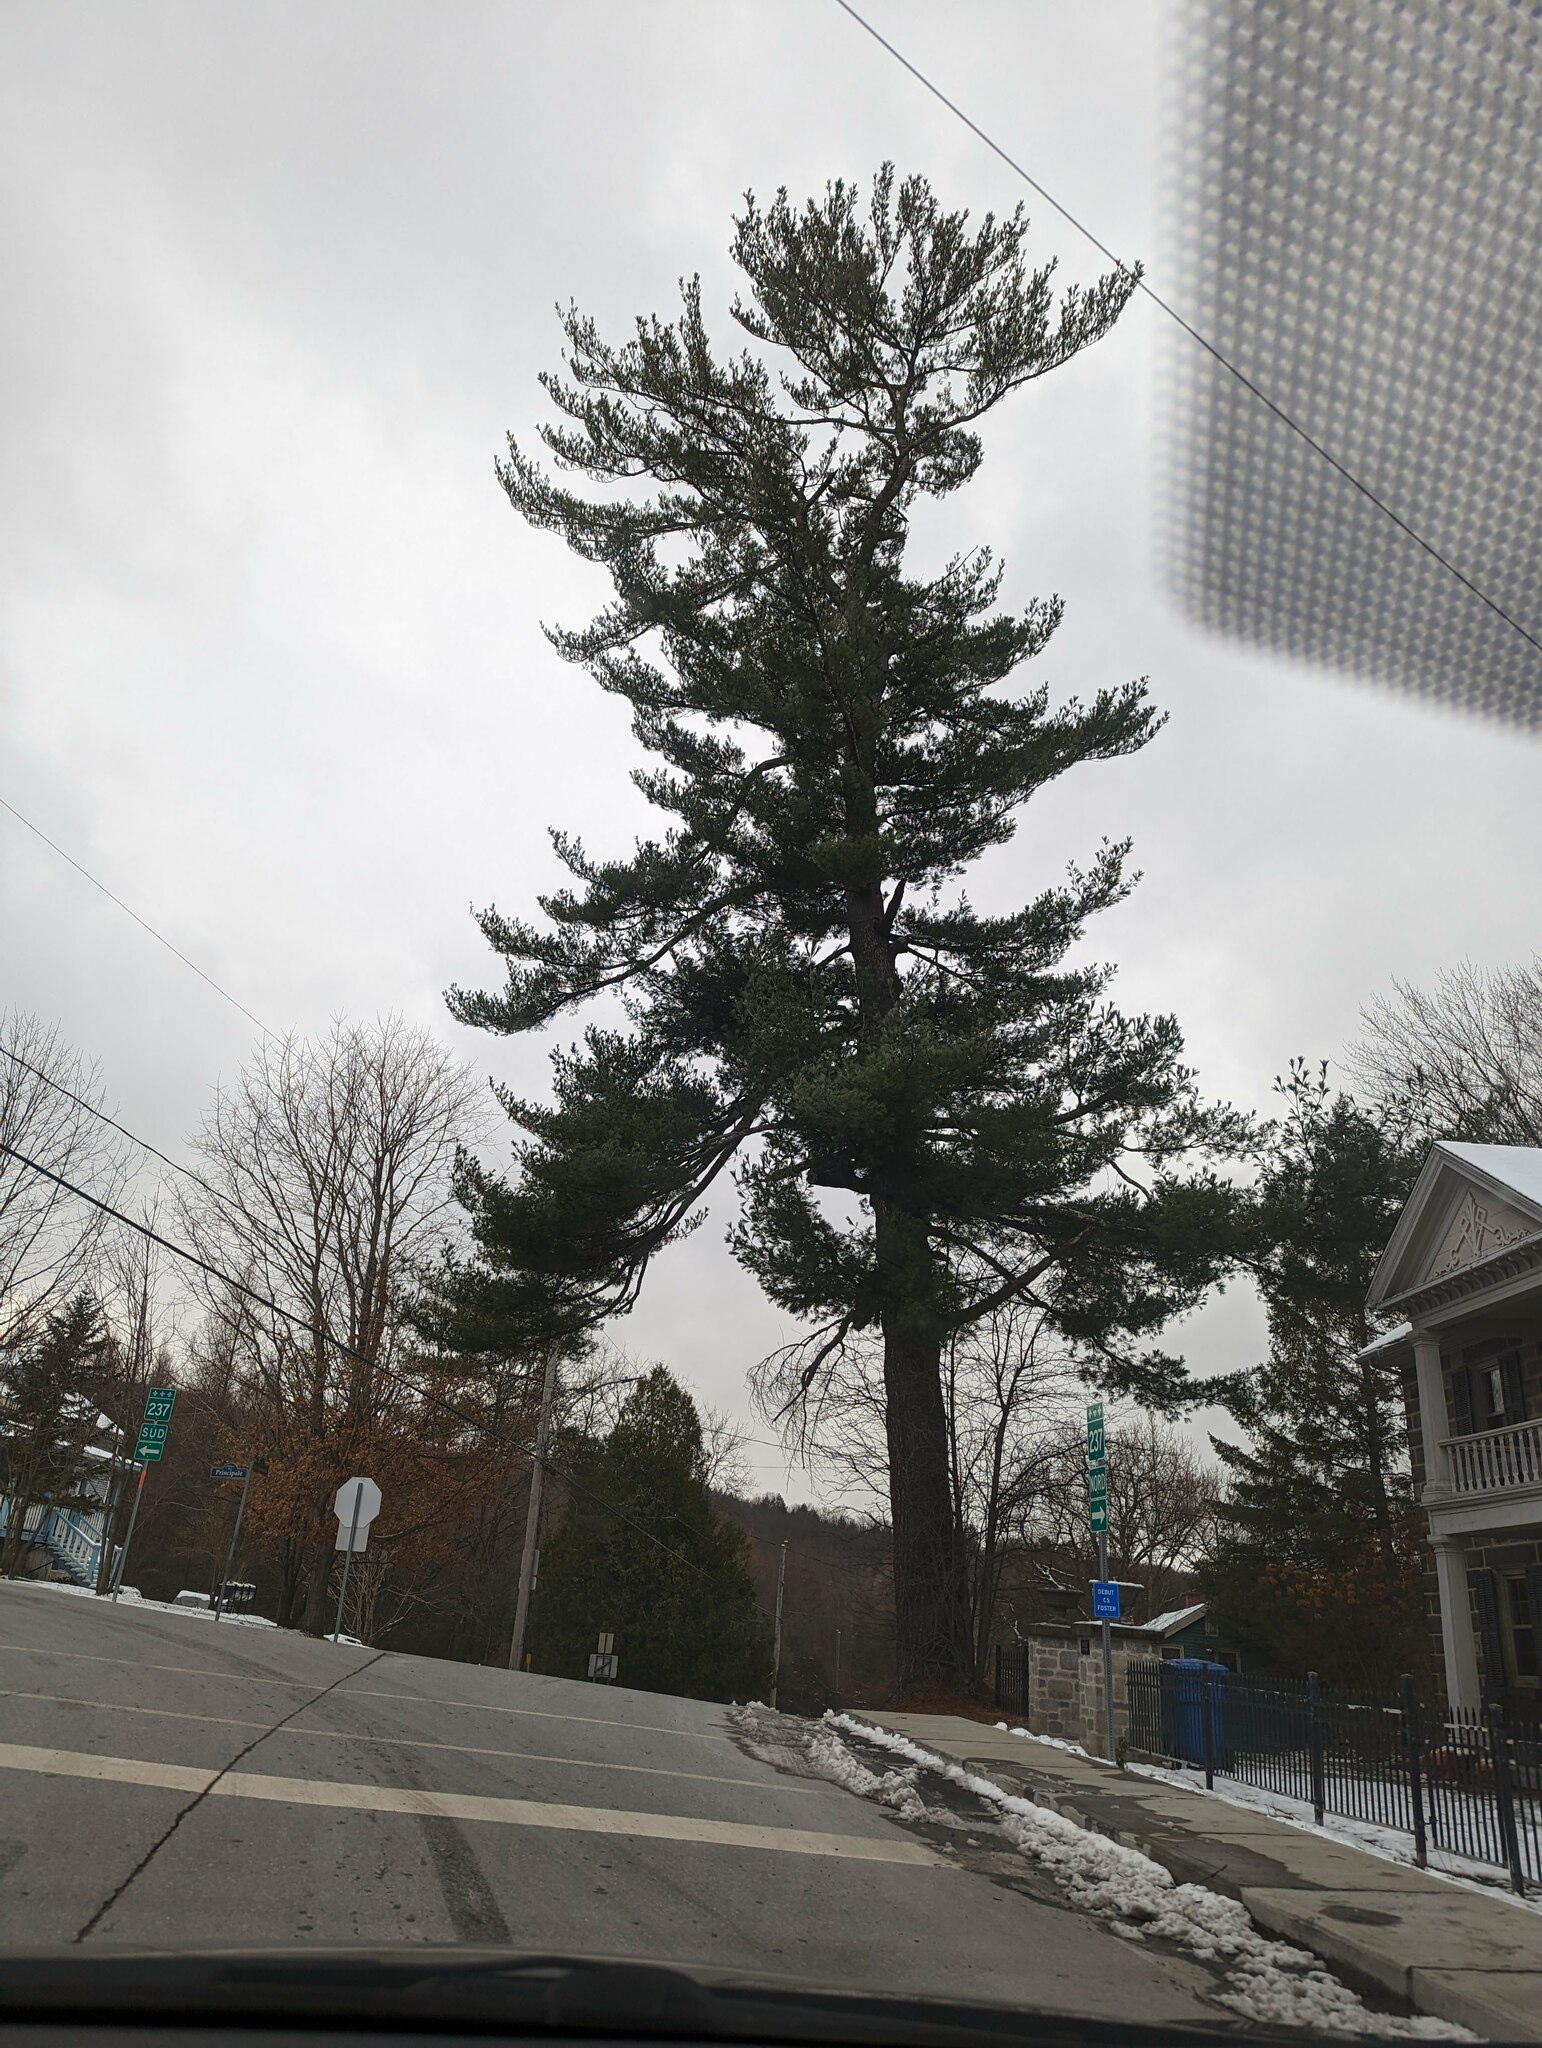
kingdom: Plantae
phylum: Tracheophyta
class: Pinopsida
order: Pinales
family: Pinaceae
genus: Pinus
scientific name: Pinus strobus
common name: Weymouth pine
